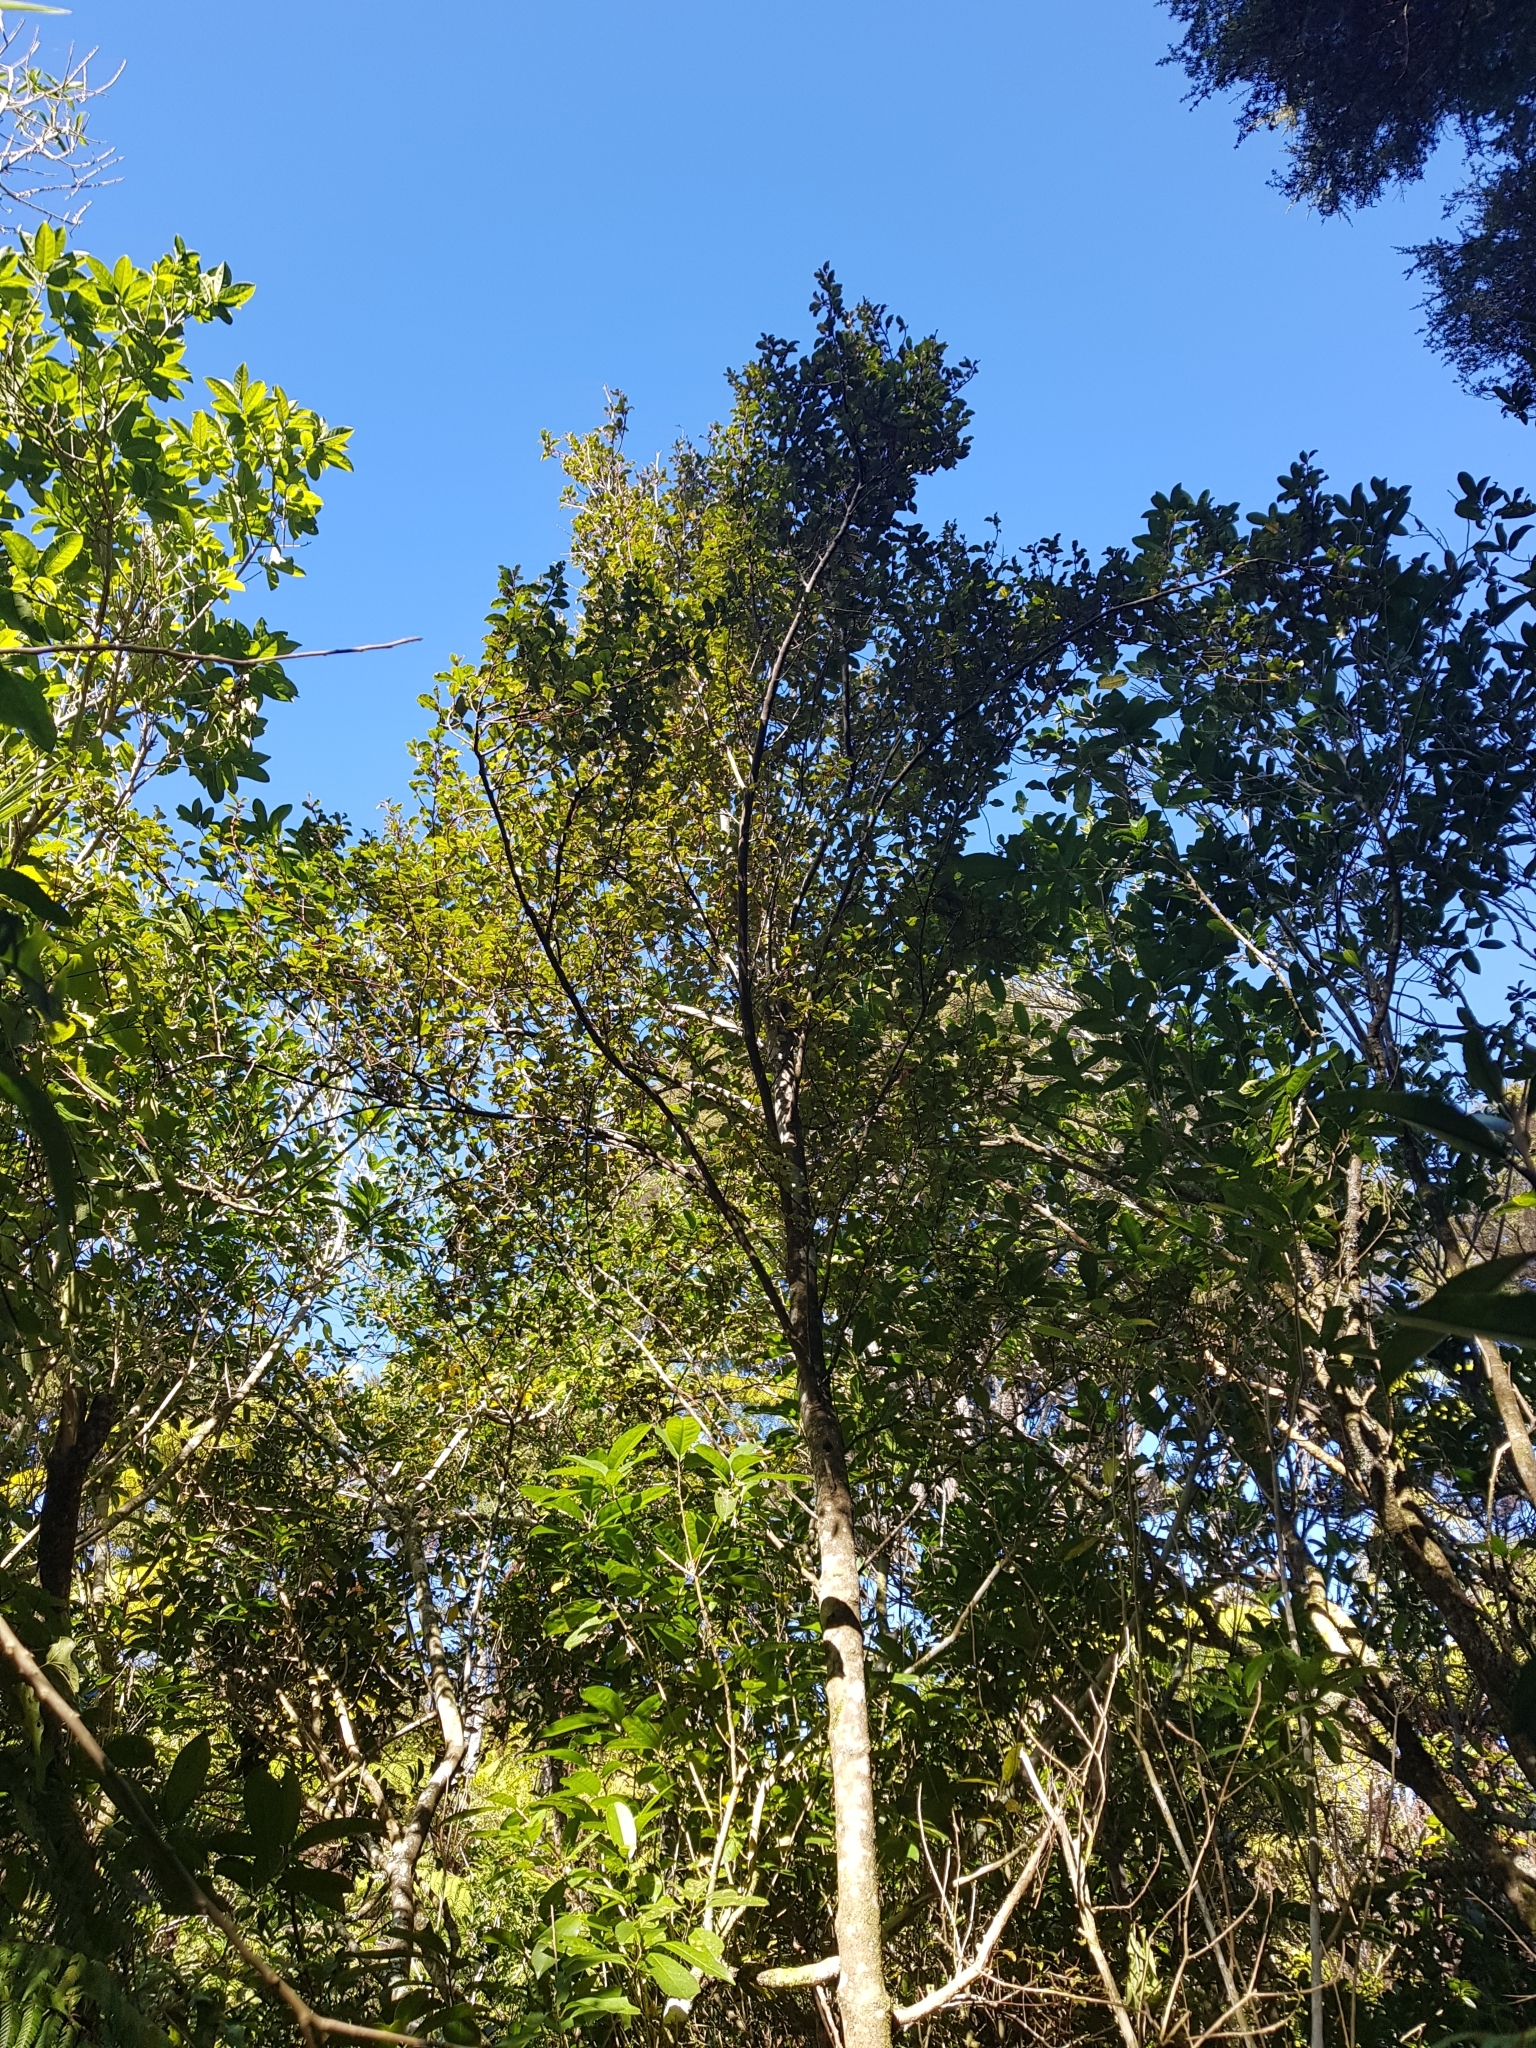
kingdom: Plantae
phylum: Tracheophyta
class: Magnoliopsida
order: Ericales
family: Primulaceae
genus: Myrsine
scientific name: Myrsine australis
